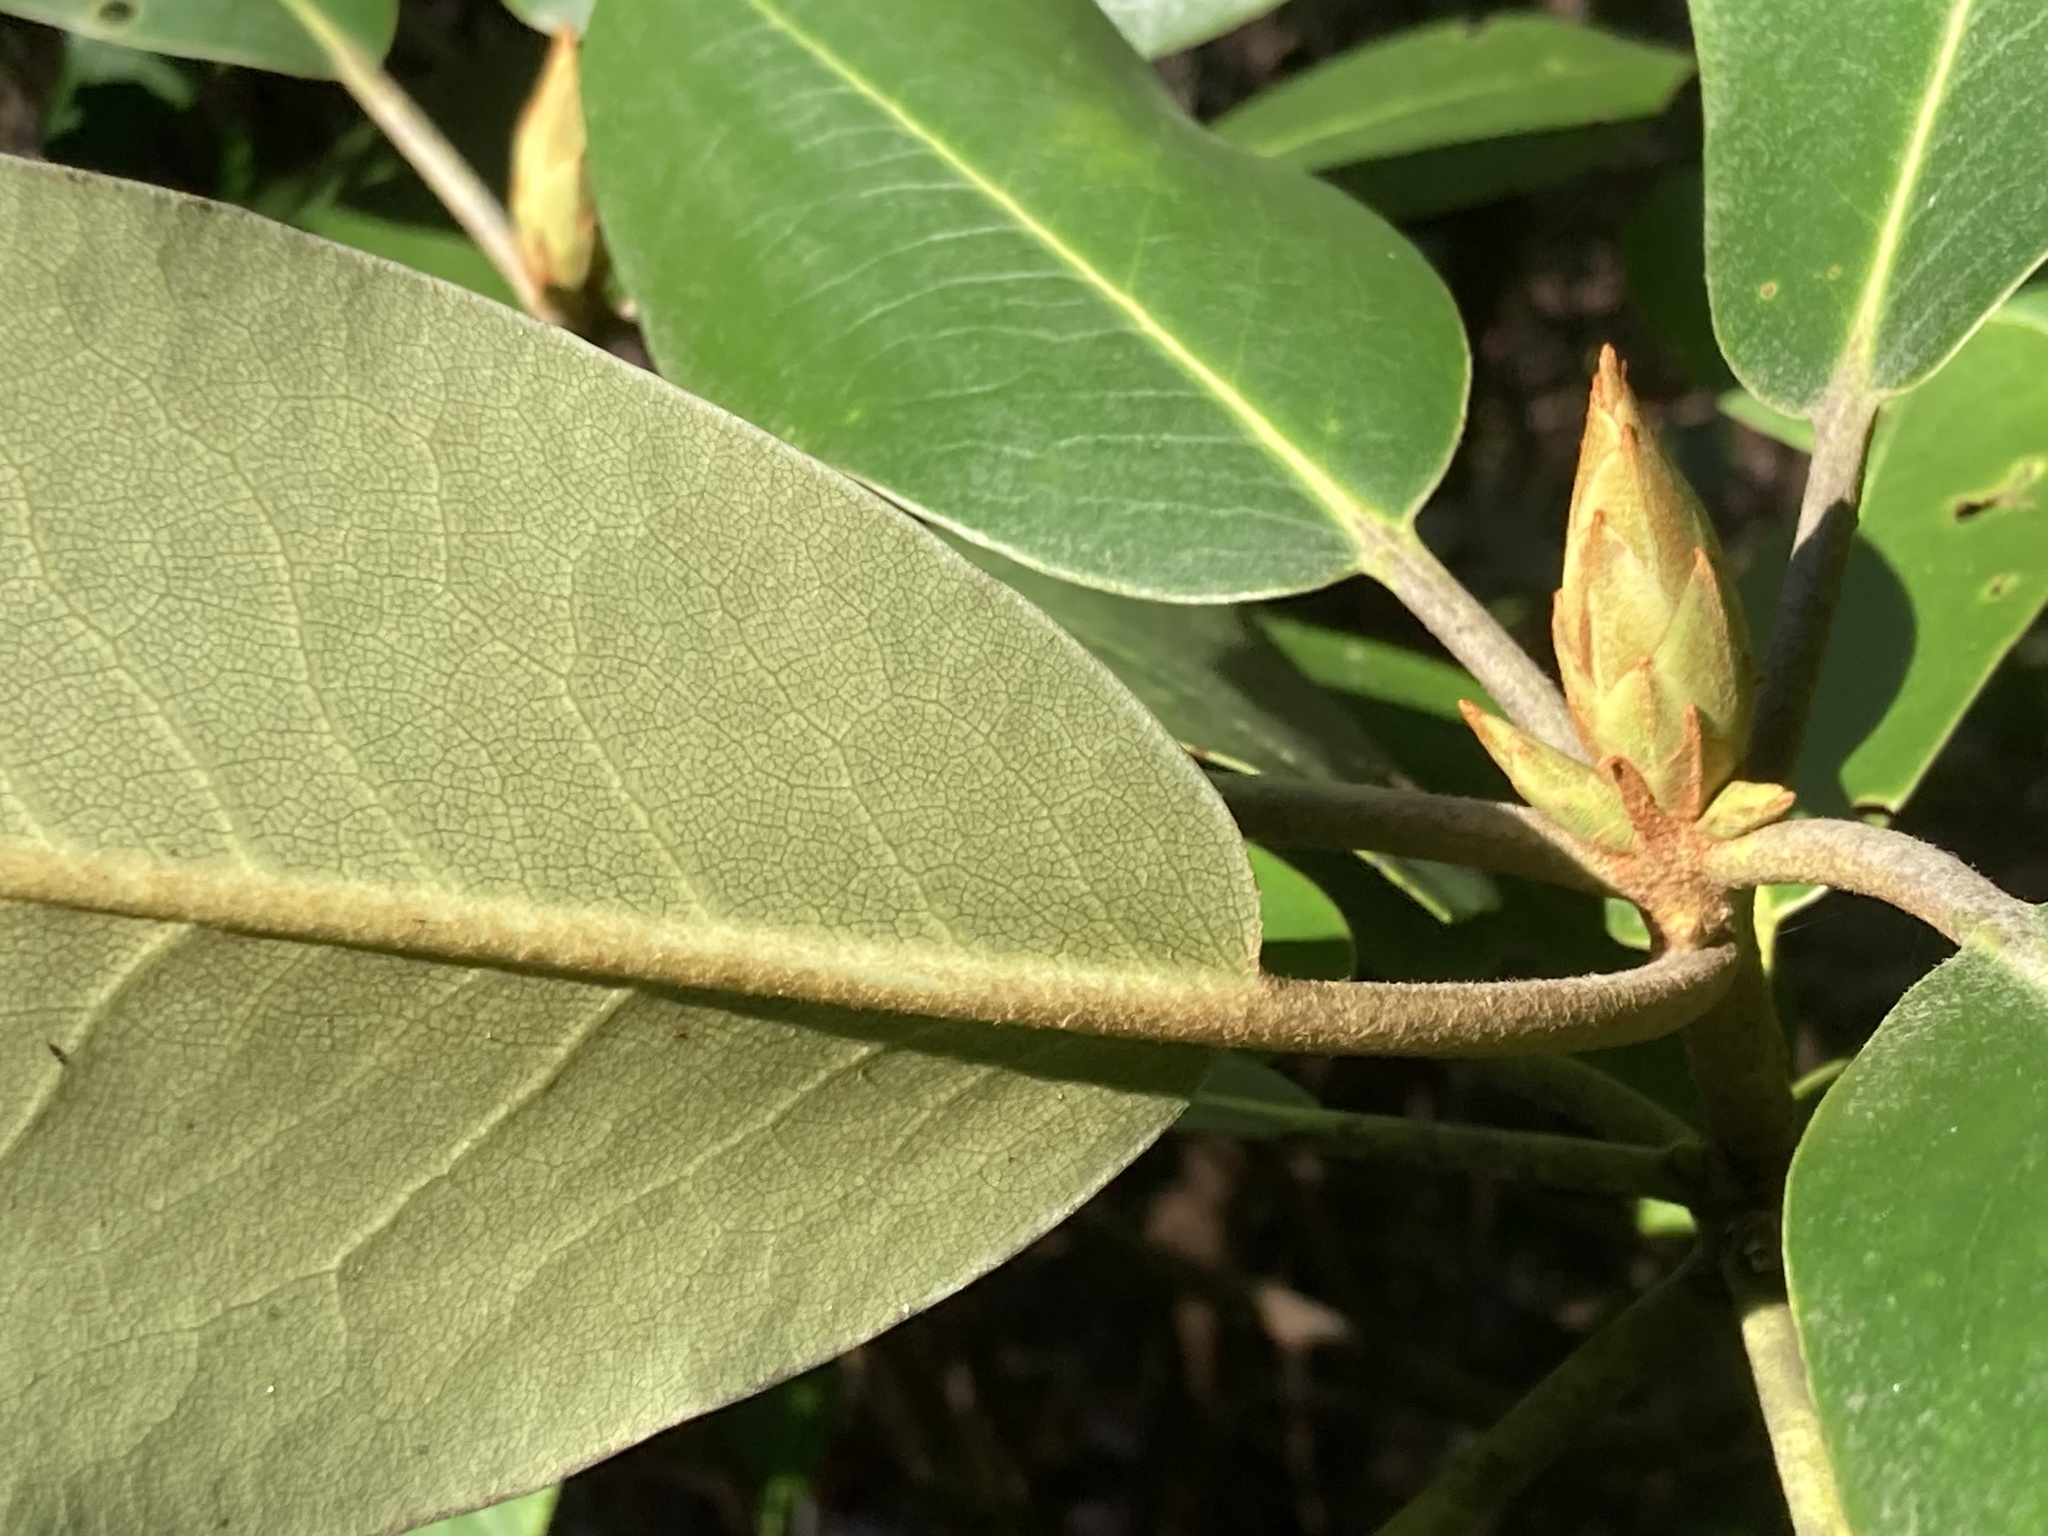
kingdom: Plantae
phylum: Tracheophyta
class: Magnoliopsida
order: Ericales
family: Ericaceae
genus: Rhododendron
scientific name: Rhododendron catawbiense
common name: Catawba rhododendron
